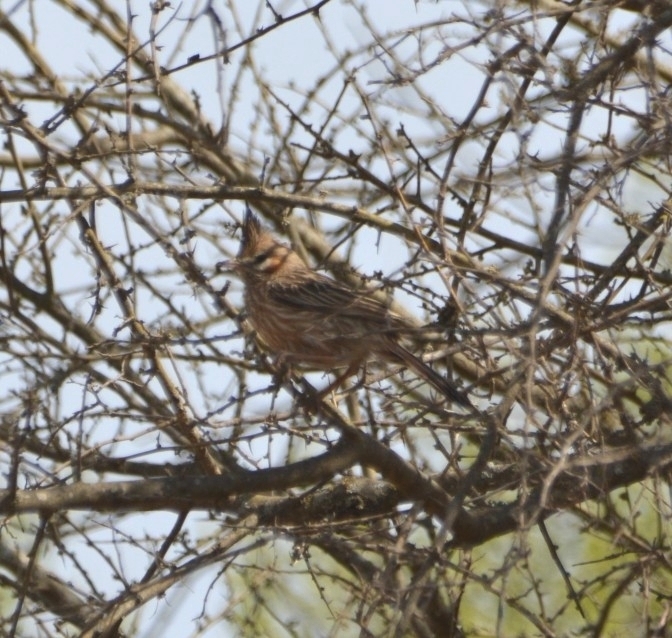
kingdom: Animalia
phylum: Chordata
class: Aves
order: Passeriformes
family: Furnariidae
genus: Coryphistera
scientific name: Coryphistera alaudina
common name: Lark-like brushrunner
